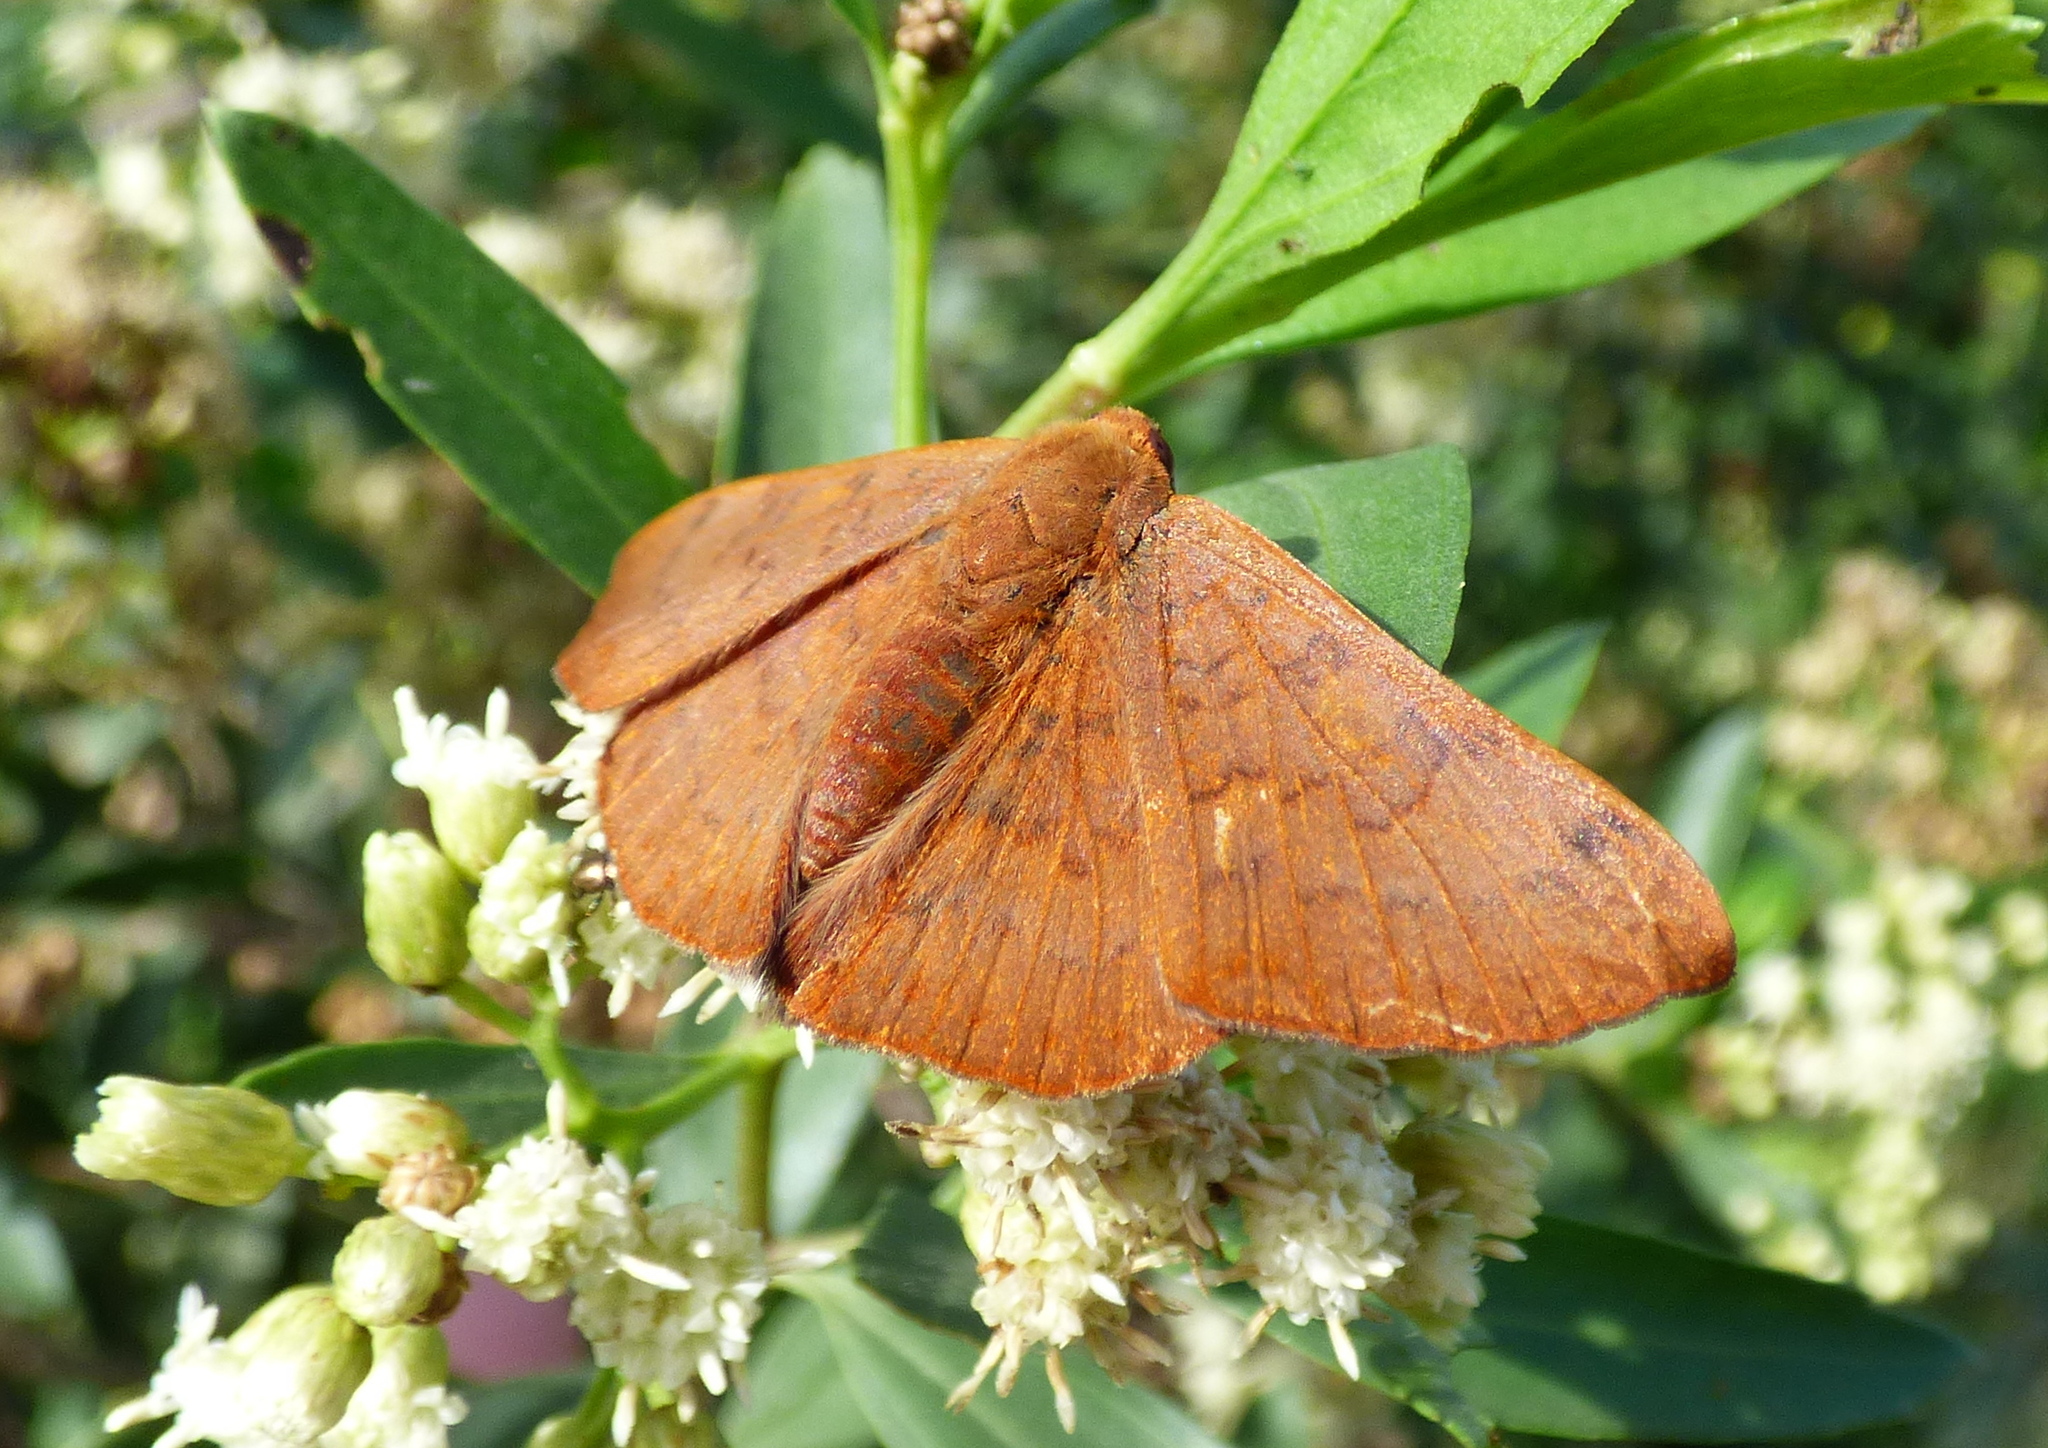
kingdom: Animalia
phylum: Arthropoda
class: Insecta
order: Lepidoptera
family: Lycaenidae
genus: Emesis
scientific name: Emesis russula
